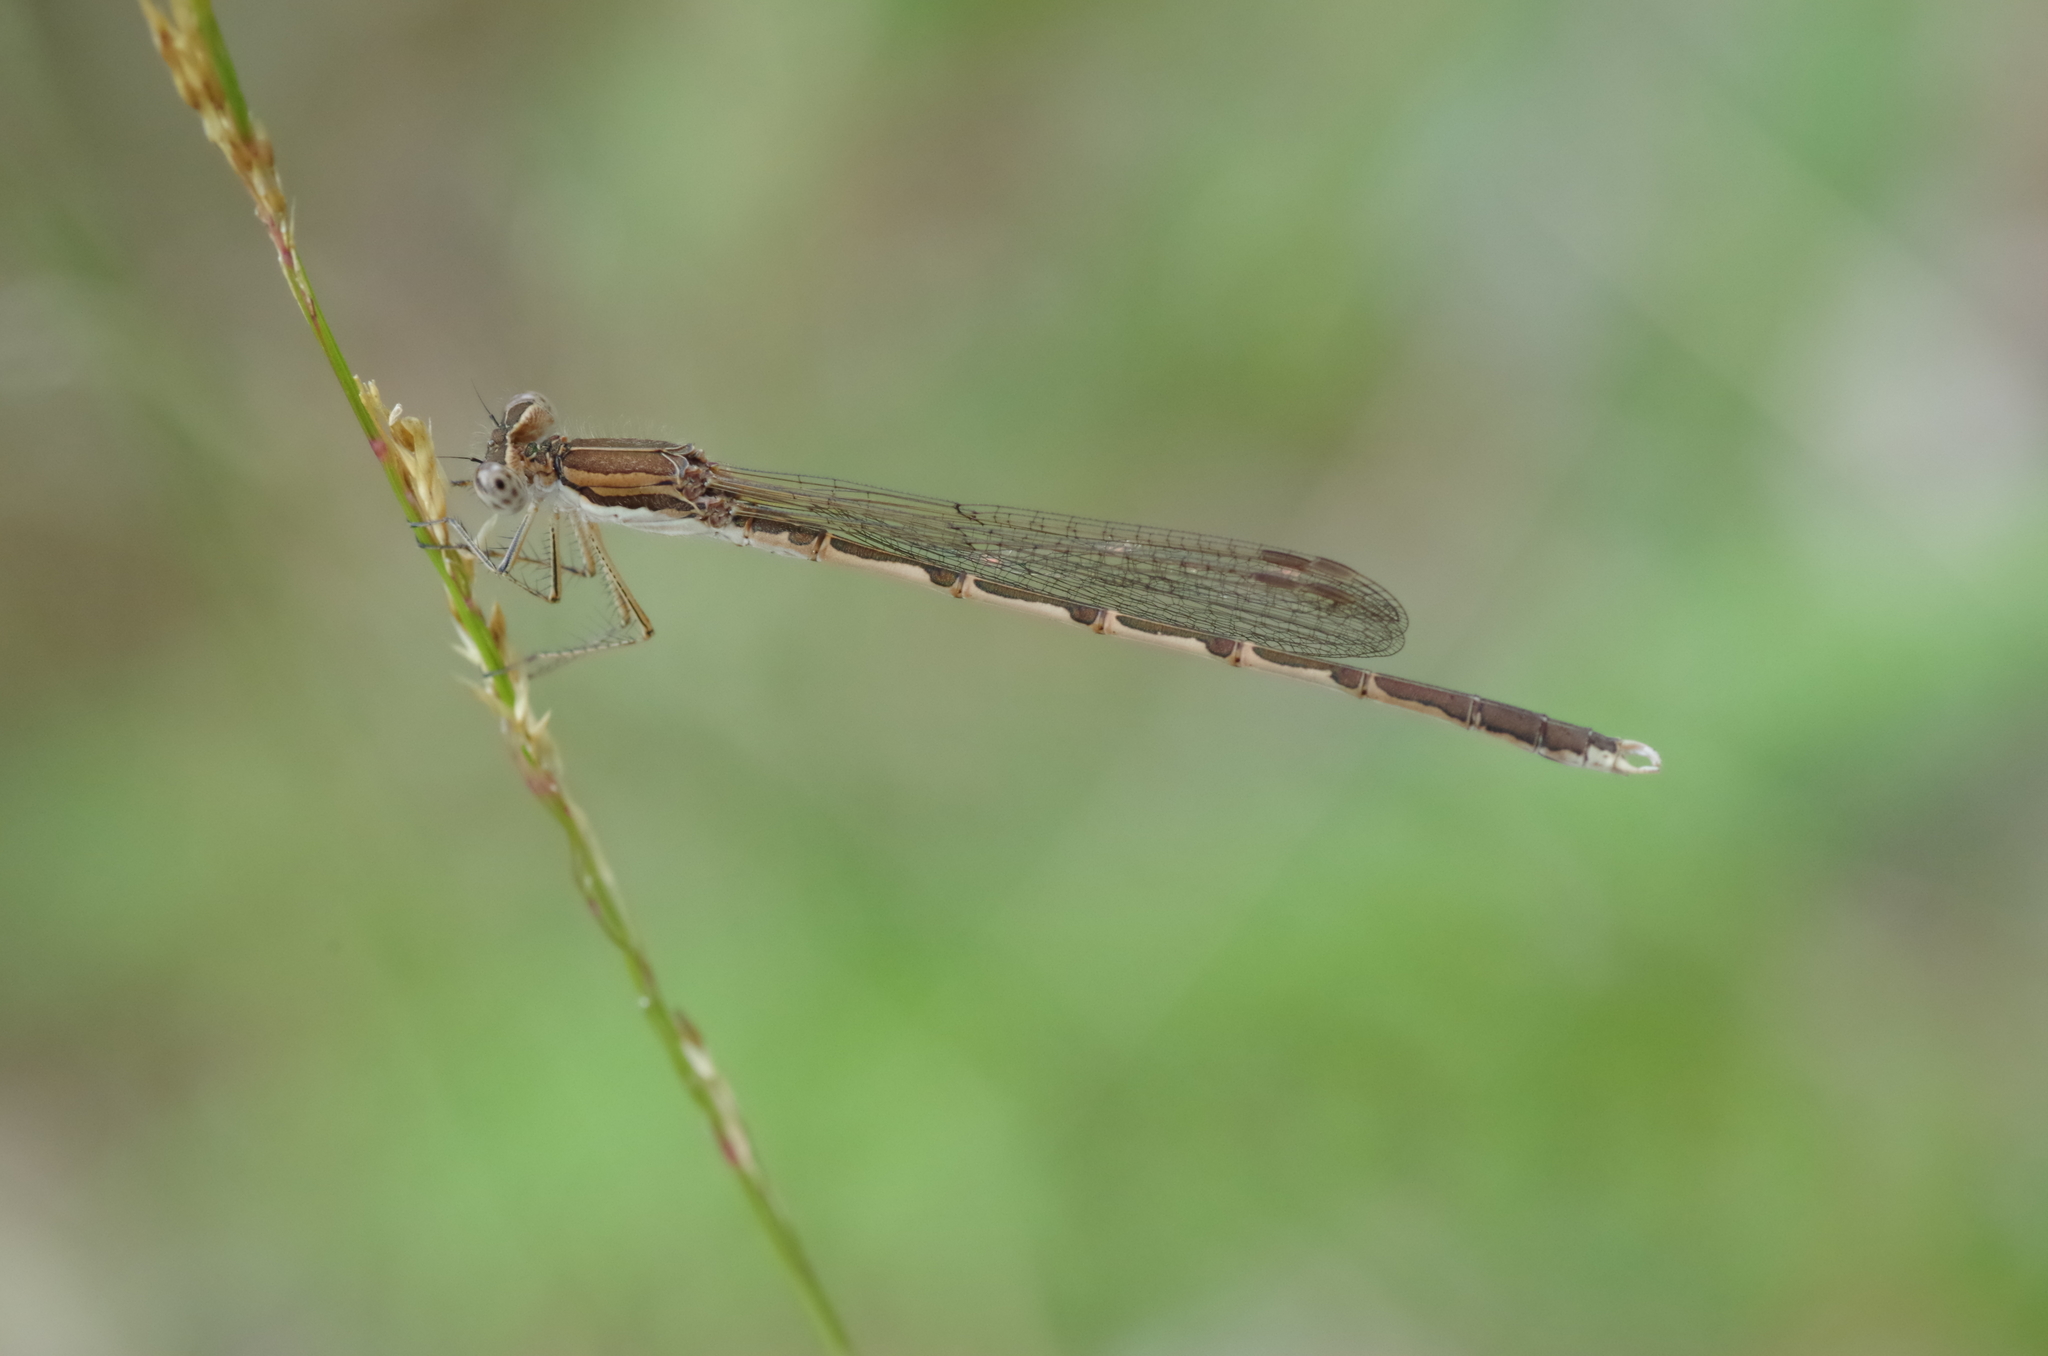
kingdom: Animalia
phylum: Arthropoda
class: Insecta
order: Odonata
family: Lestidae
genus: Sympecma
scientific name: Sympecma fusca
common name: Common winter damsel
